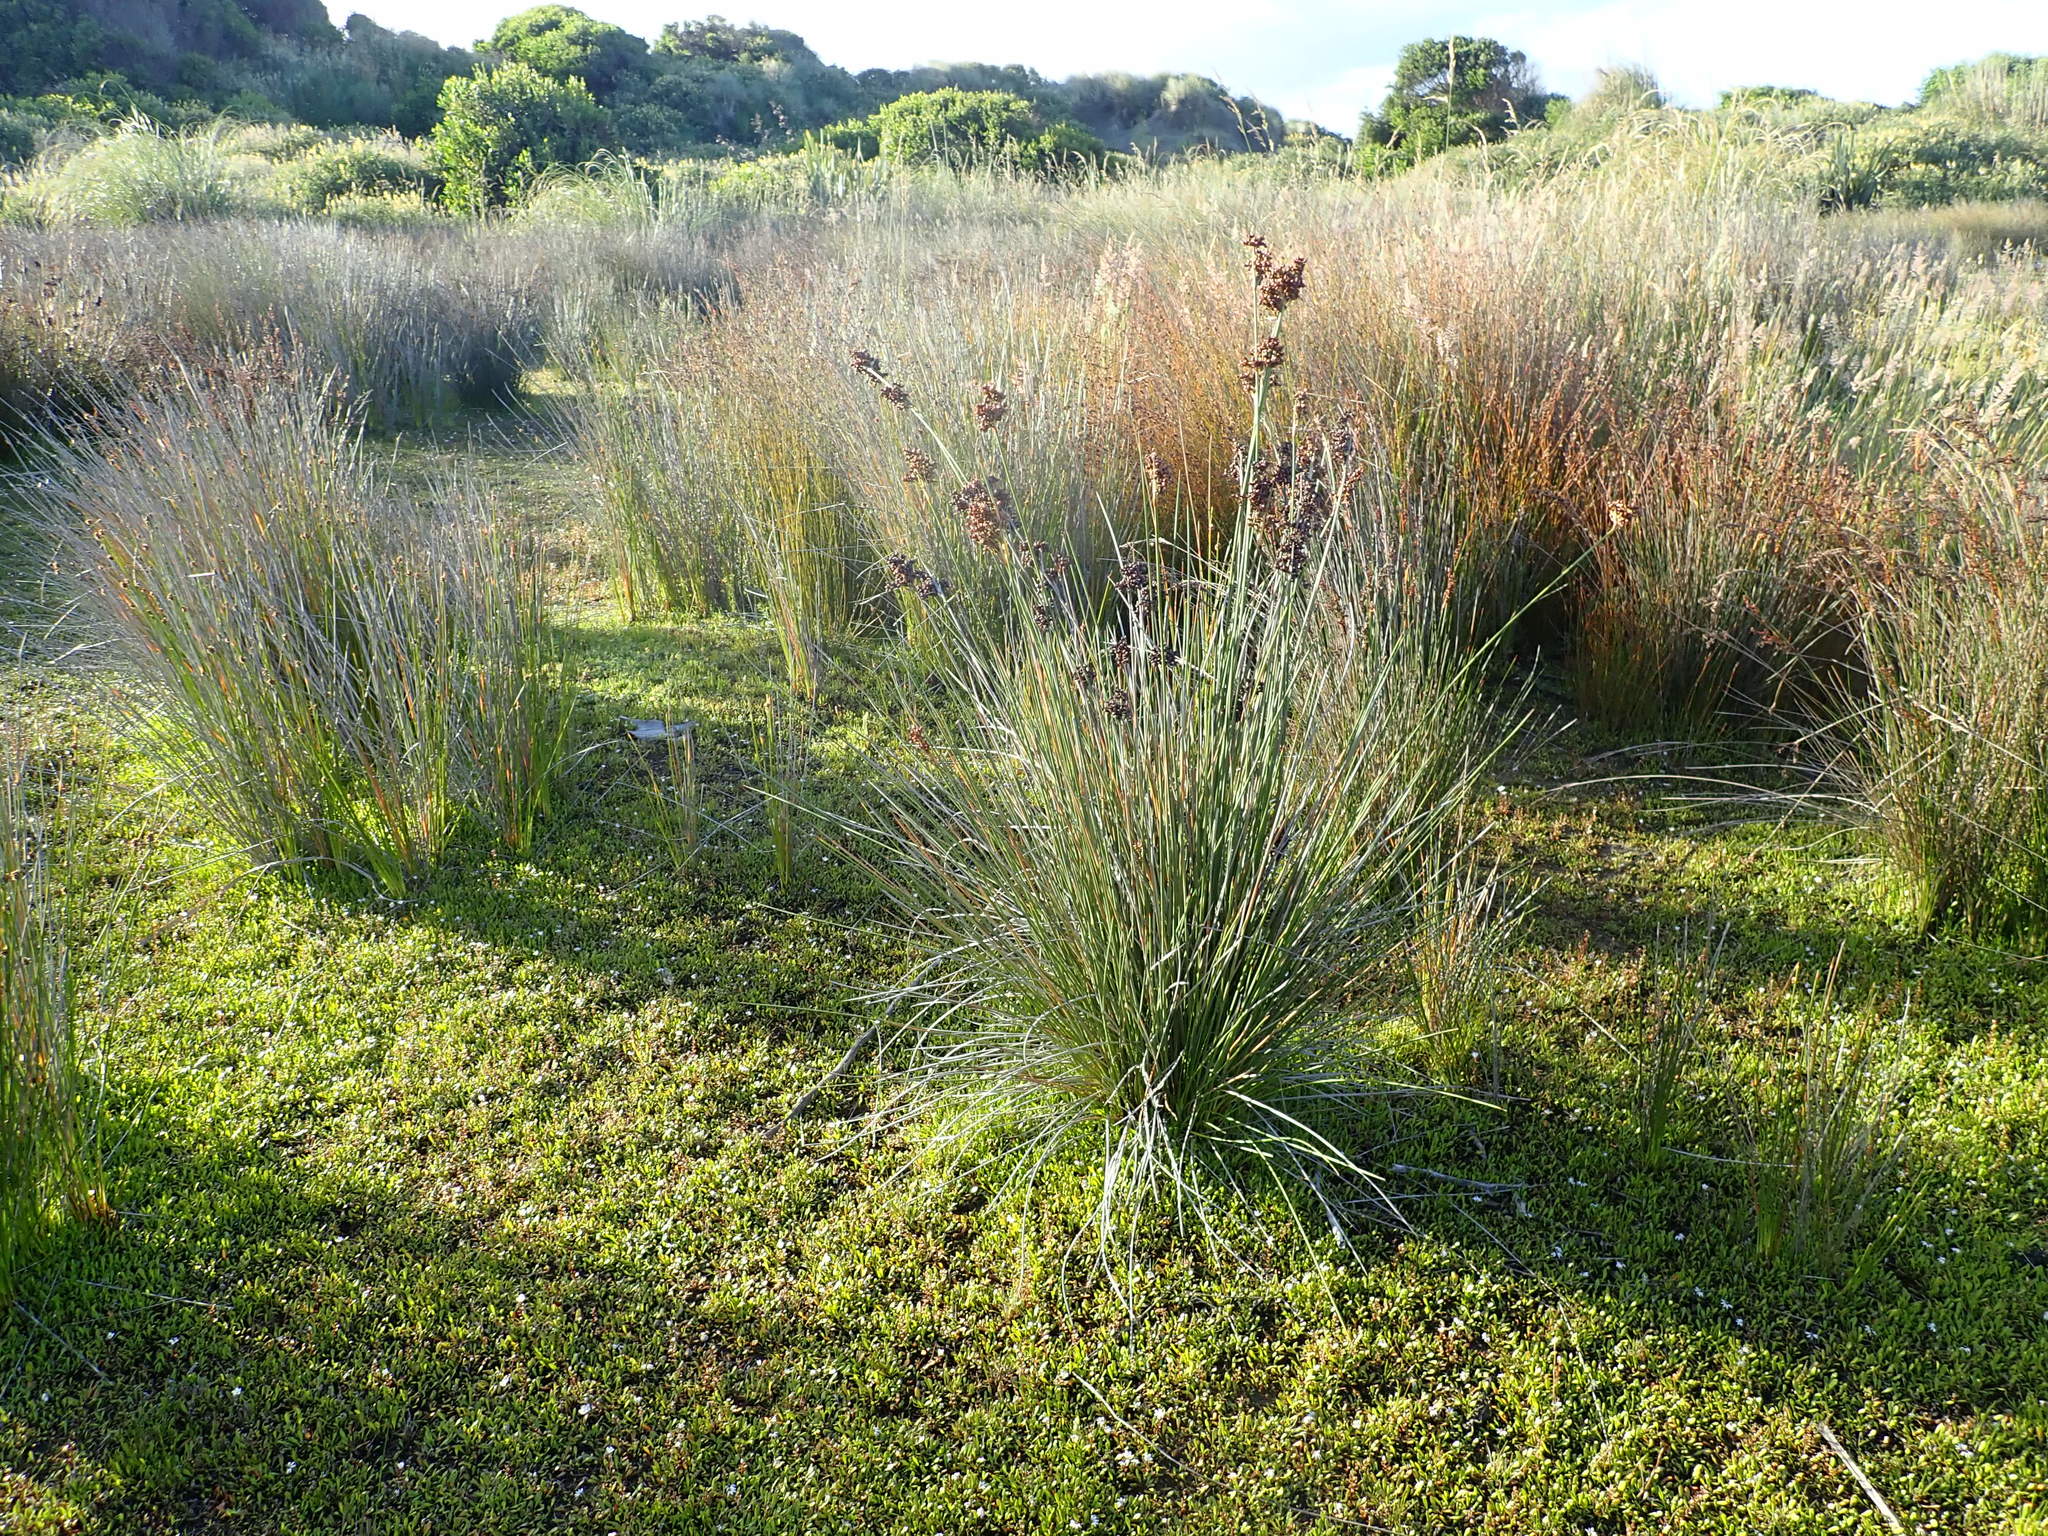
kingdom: Plantae
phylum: Tracheophyta
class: Liliopsida
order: Poales
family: Juncaceae
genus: Juncus
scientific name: Juncus acutus
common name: Sharp rush
